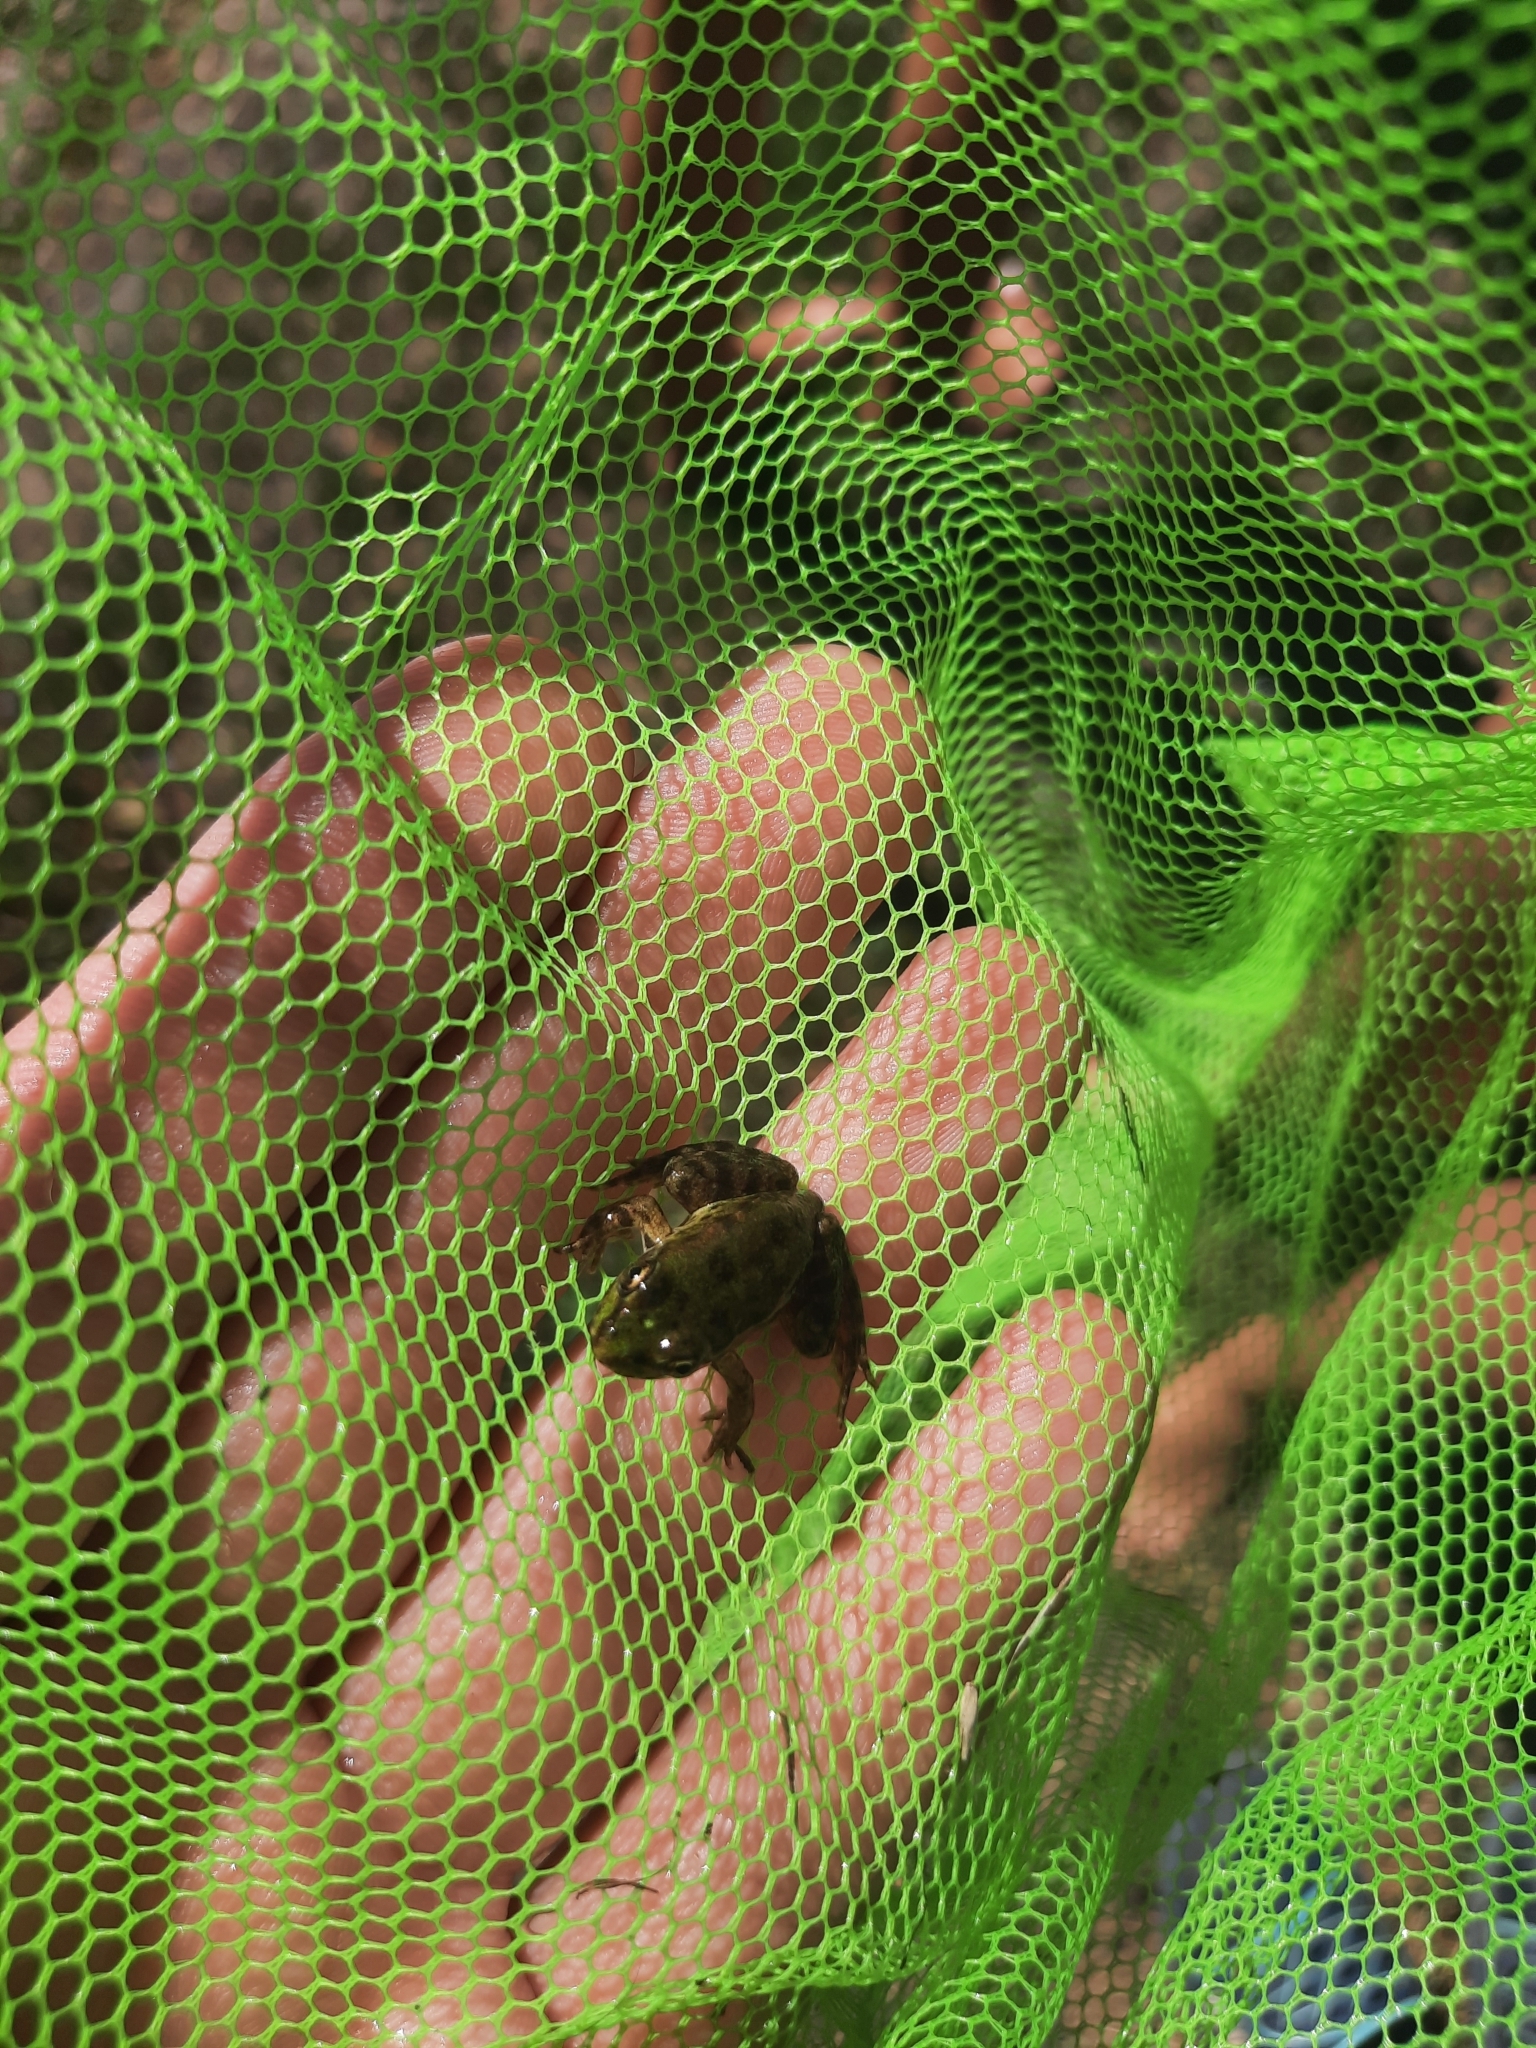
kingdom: Animalia
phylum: Chordata
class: Amphibia
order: Anura
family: Ranidae
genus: Pelophylax
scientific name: Pelophylax ridibundus
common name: Marsh frog
